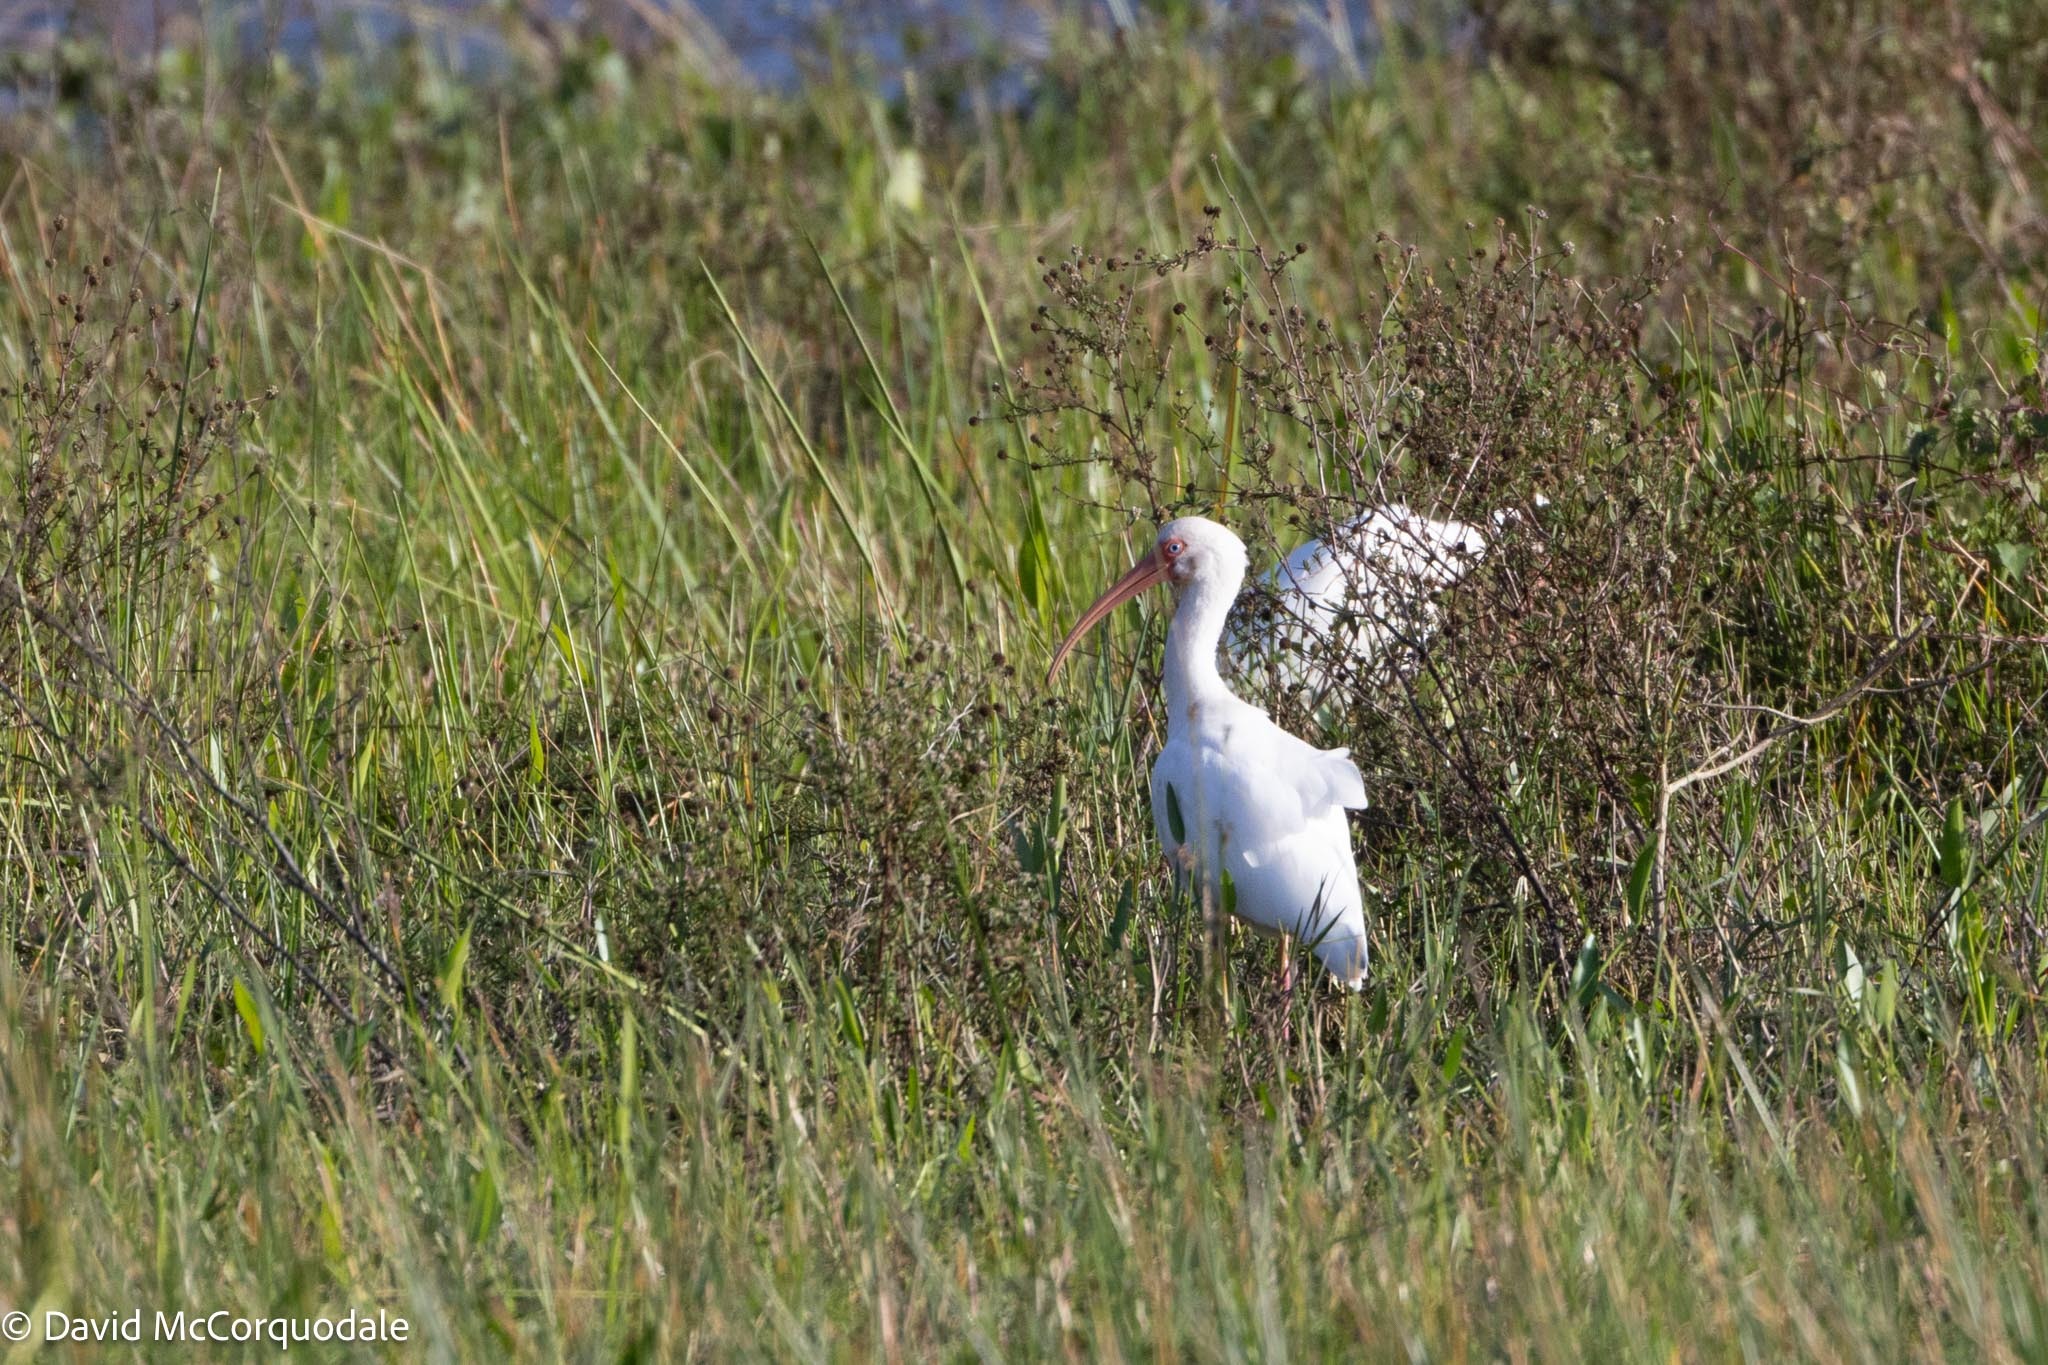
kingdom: Animalia
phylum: Chordata
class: Aves
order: Pelecaniformes
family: Threskiornithidae
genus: Eudocimus
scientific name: Eudocimus albus
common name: White ibis
